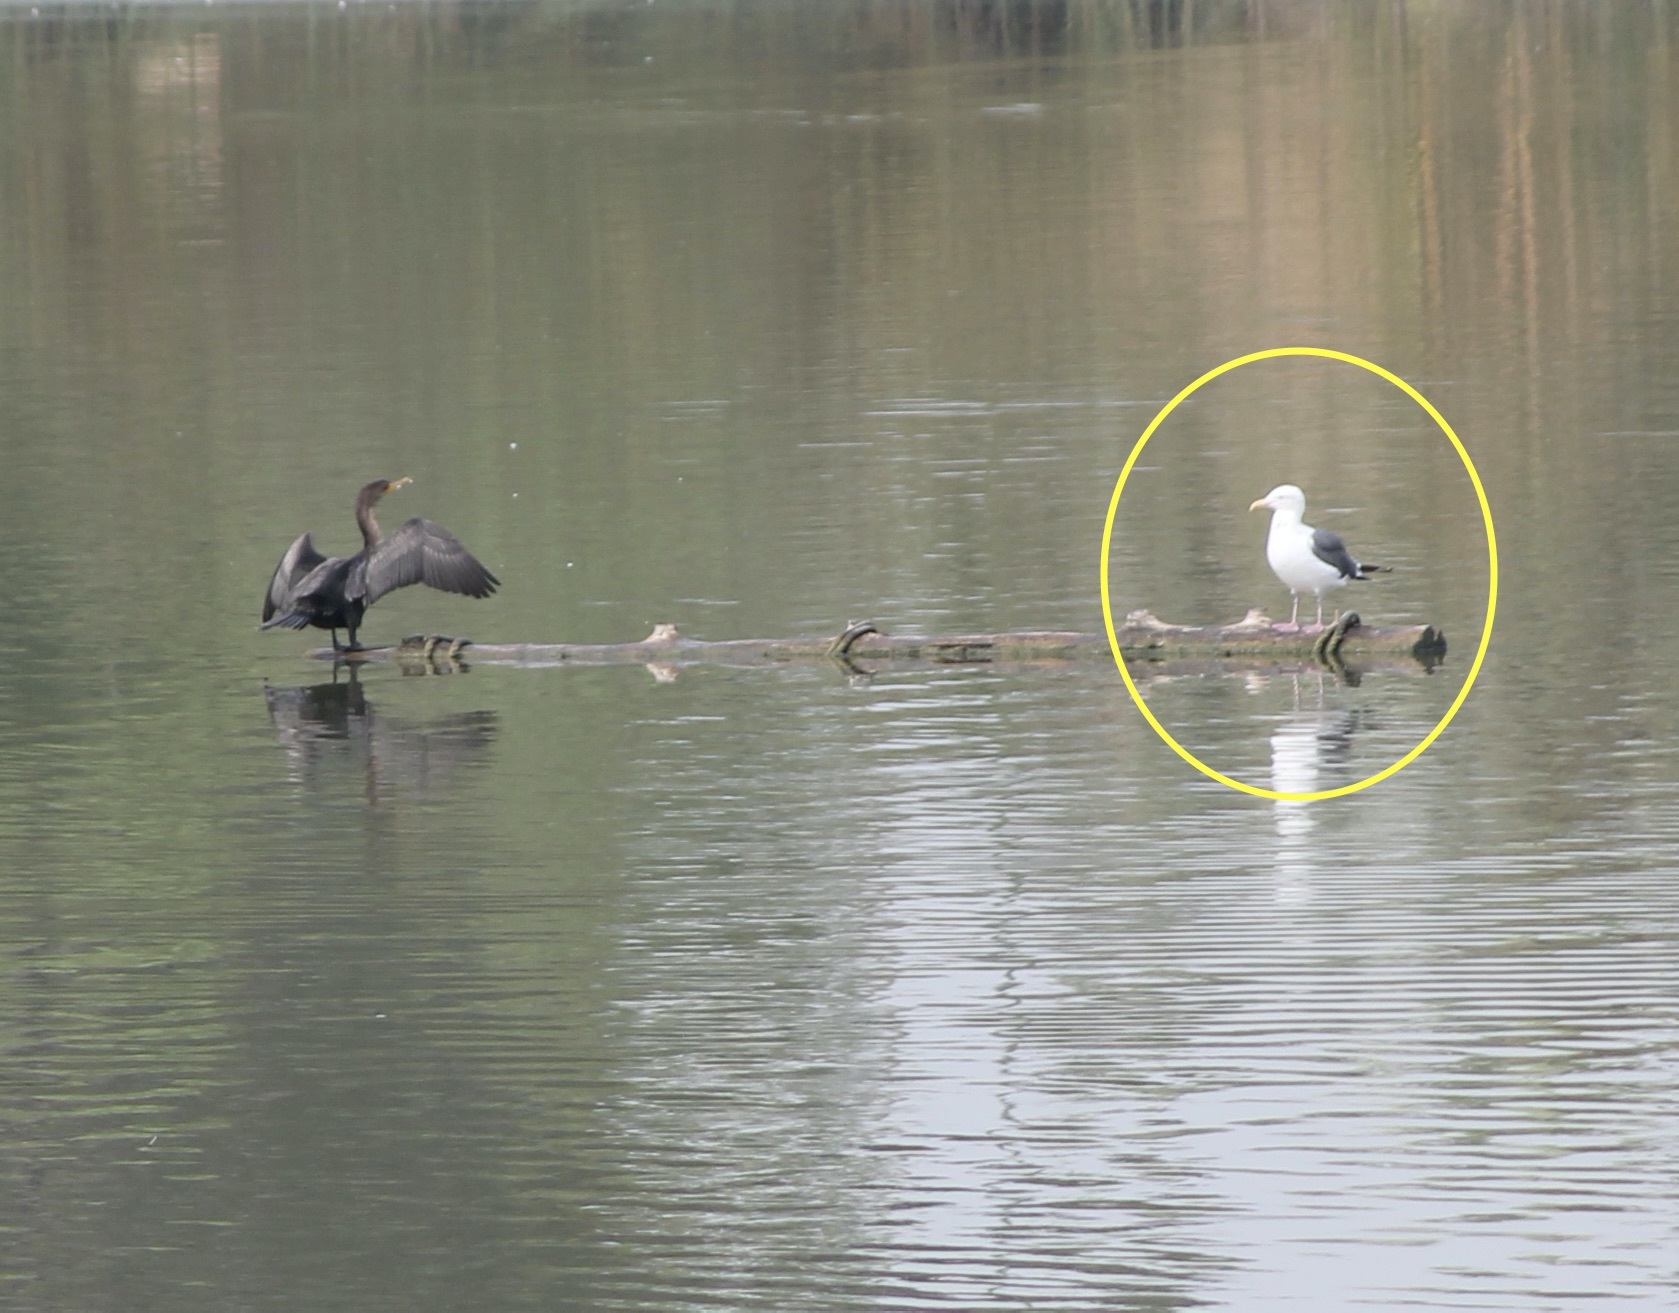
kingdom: Animalia
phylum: Chordata
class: Aves
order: Charadriiformes
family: Laridae
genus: Larus
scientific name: Larus occidentalis
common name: Western gull
